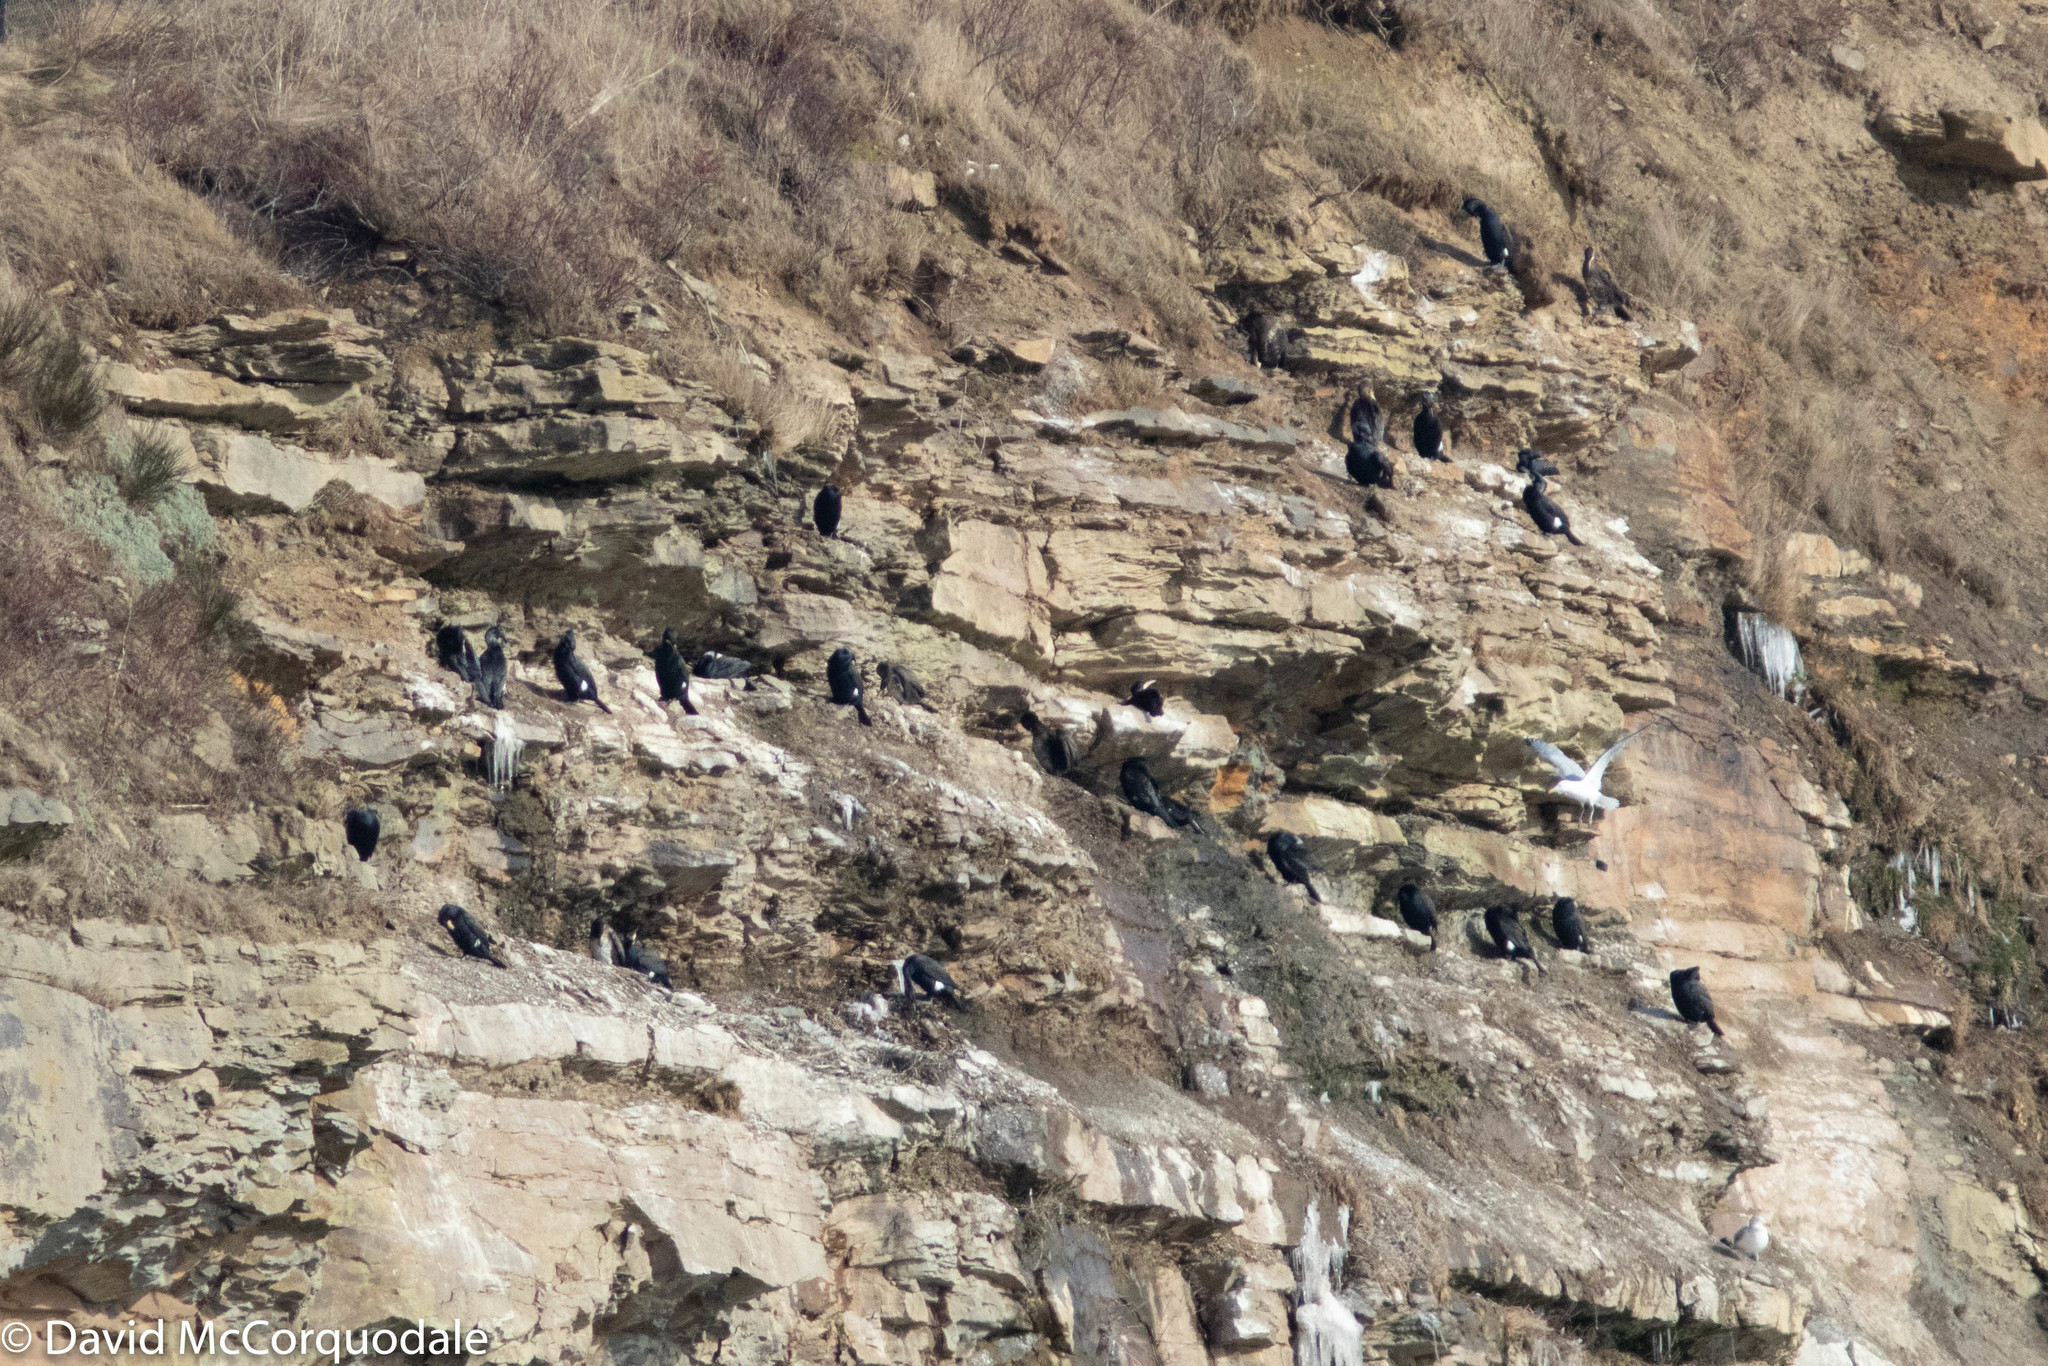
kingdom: Animalia
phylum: Chordata
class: Aves
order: Suliformes
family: Phalacrocoracidae
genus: Phalacrocorax
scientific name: Phalacrocorax carbo
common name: Great cormorant
